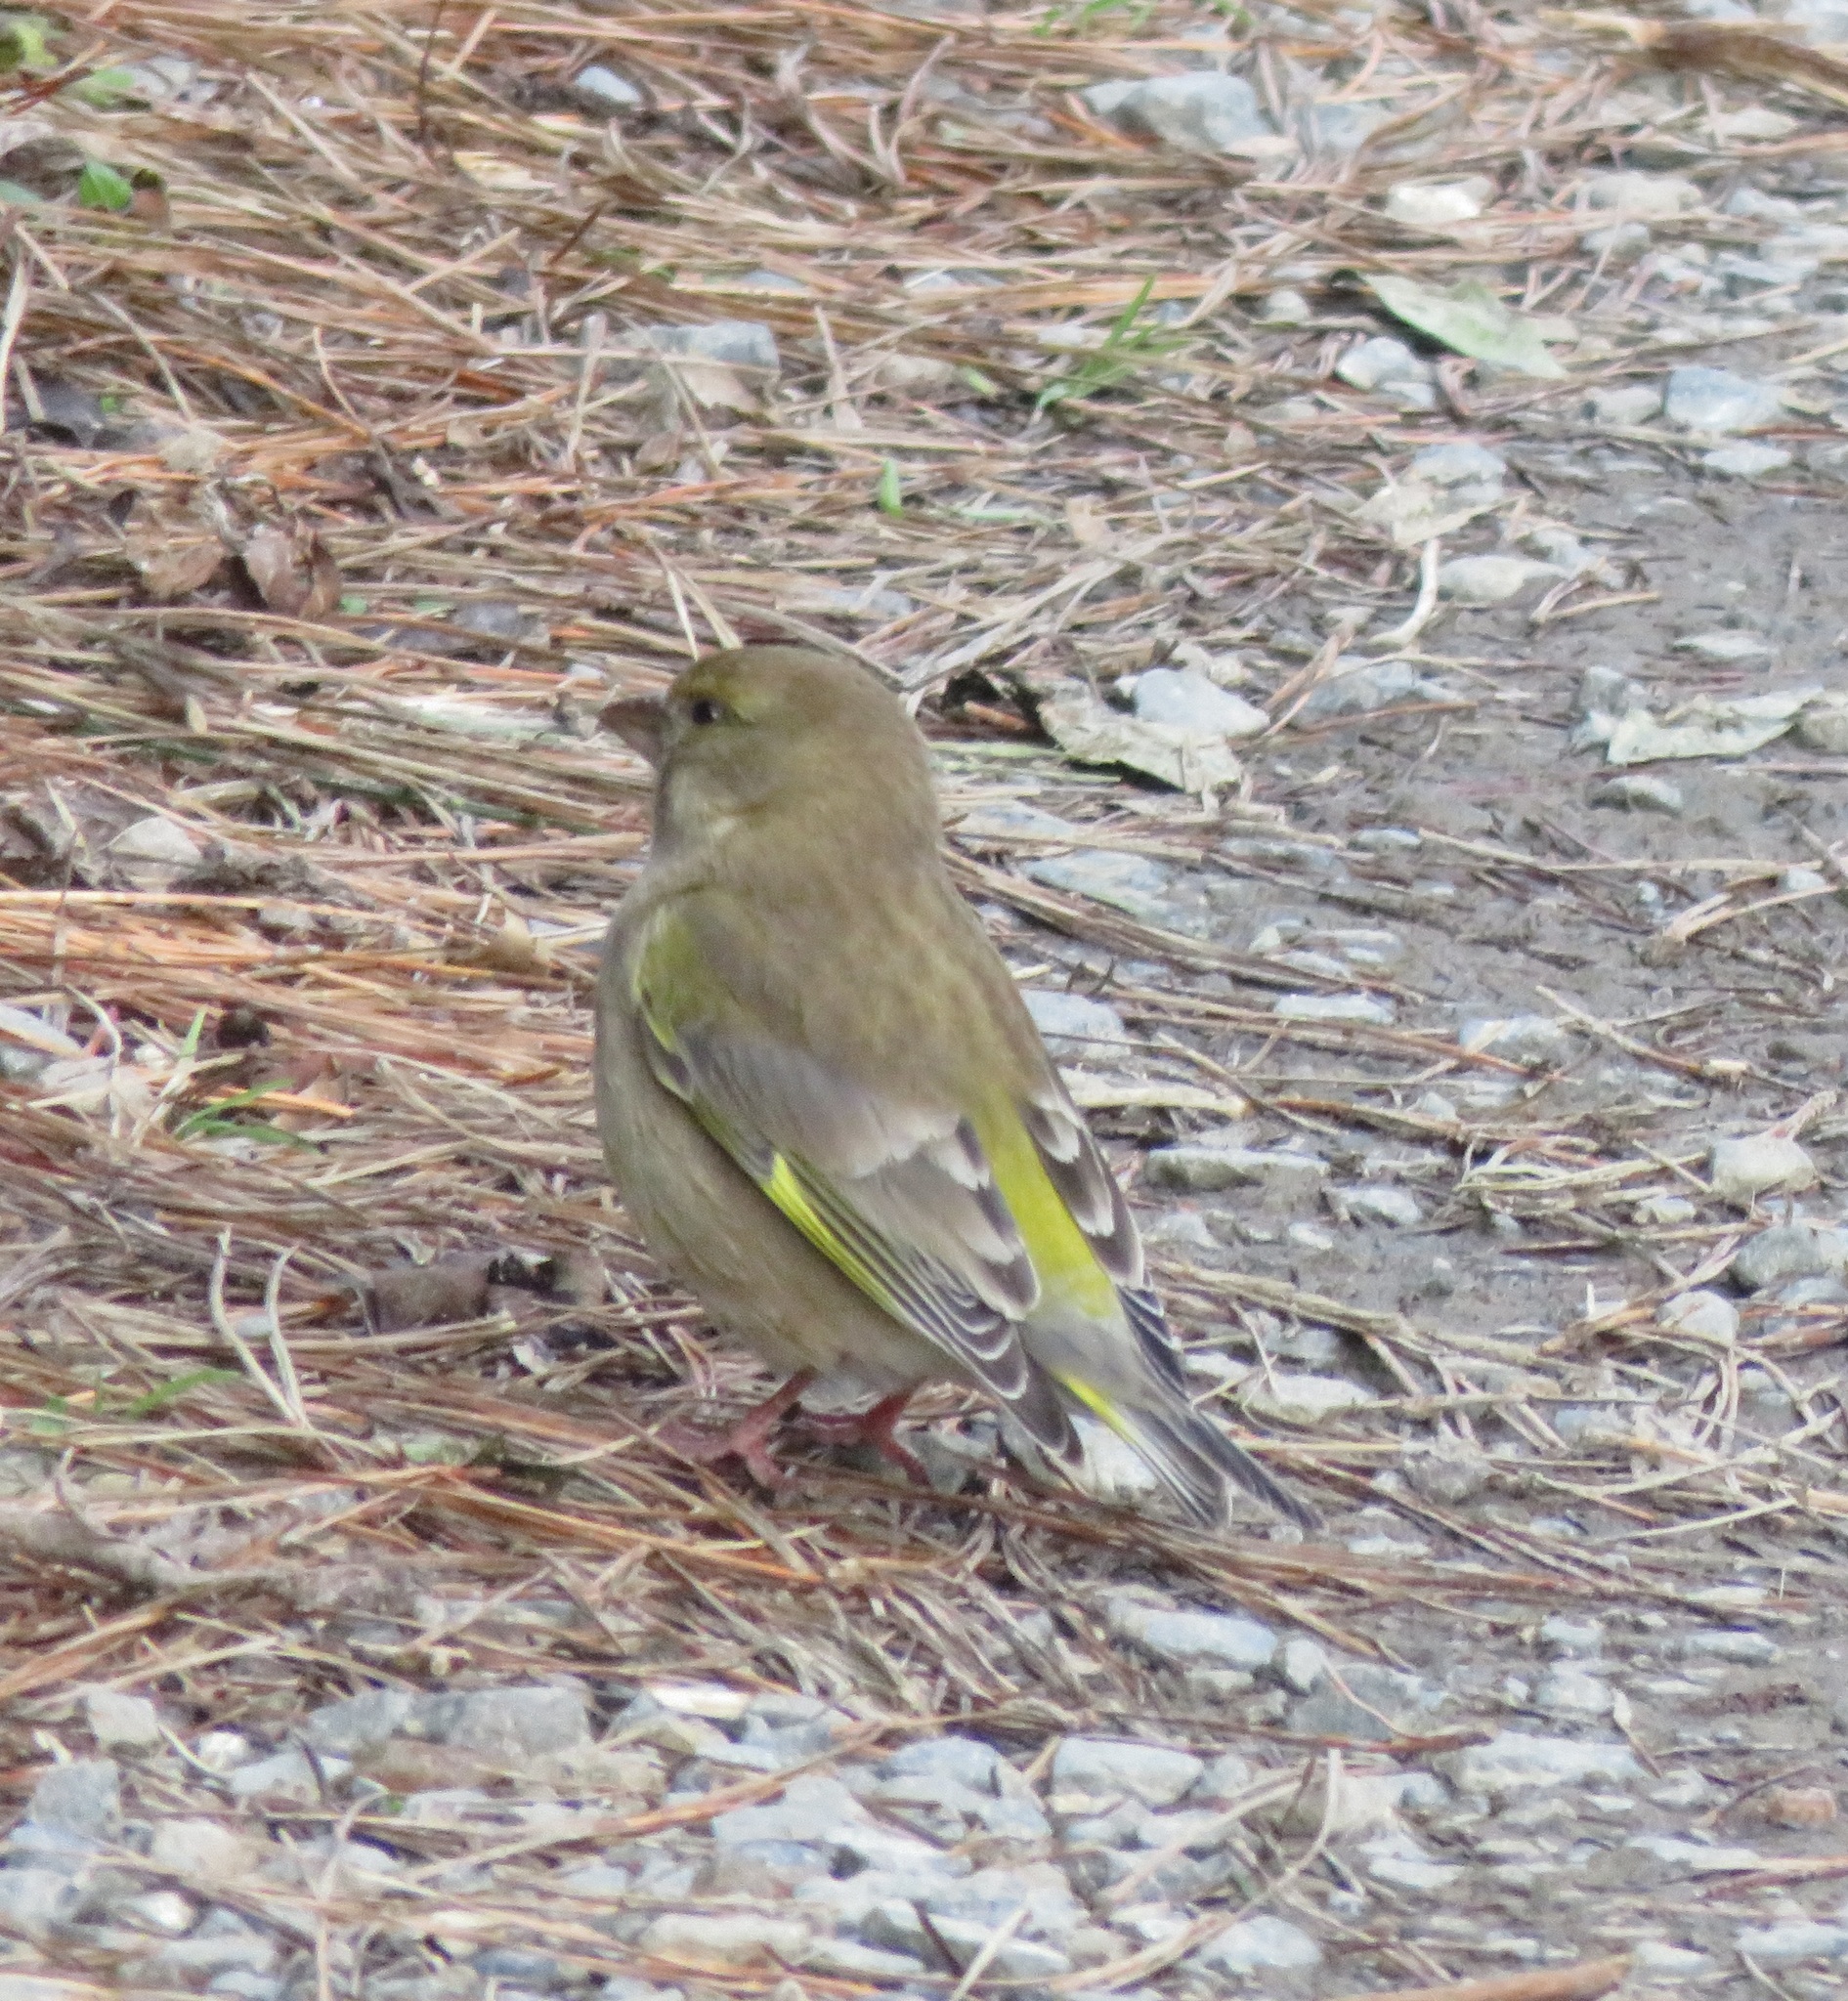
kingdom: Plantae
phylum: Tracheophyta
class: Liliopsida
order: Poales
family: Poaceae
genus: Chloris
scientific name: Chloris chloris
